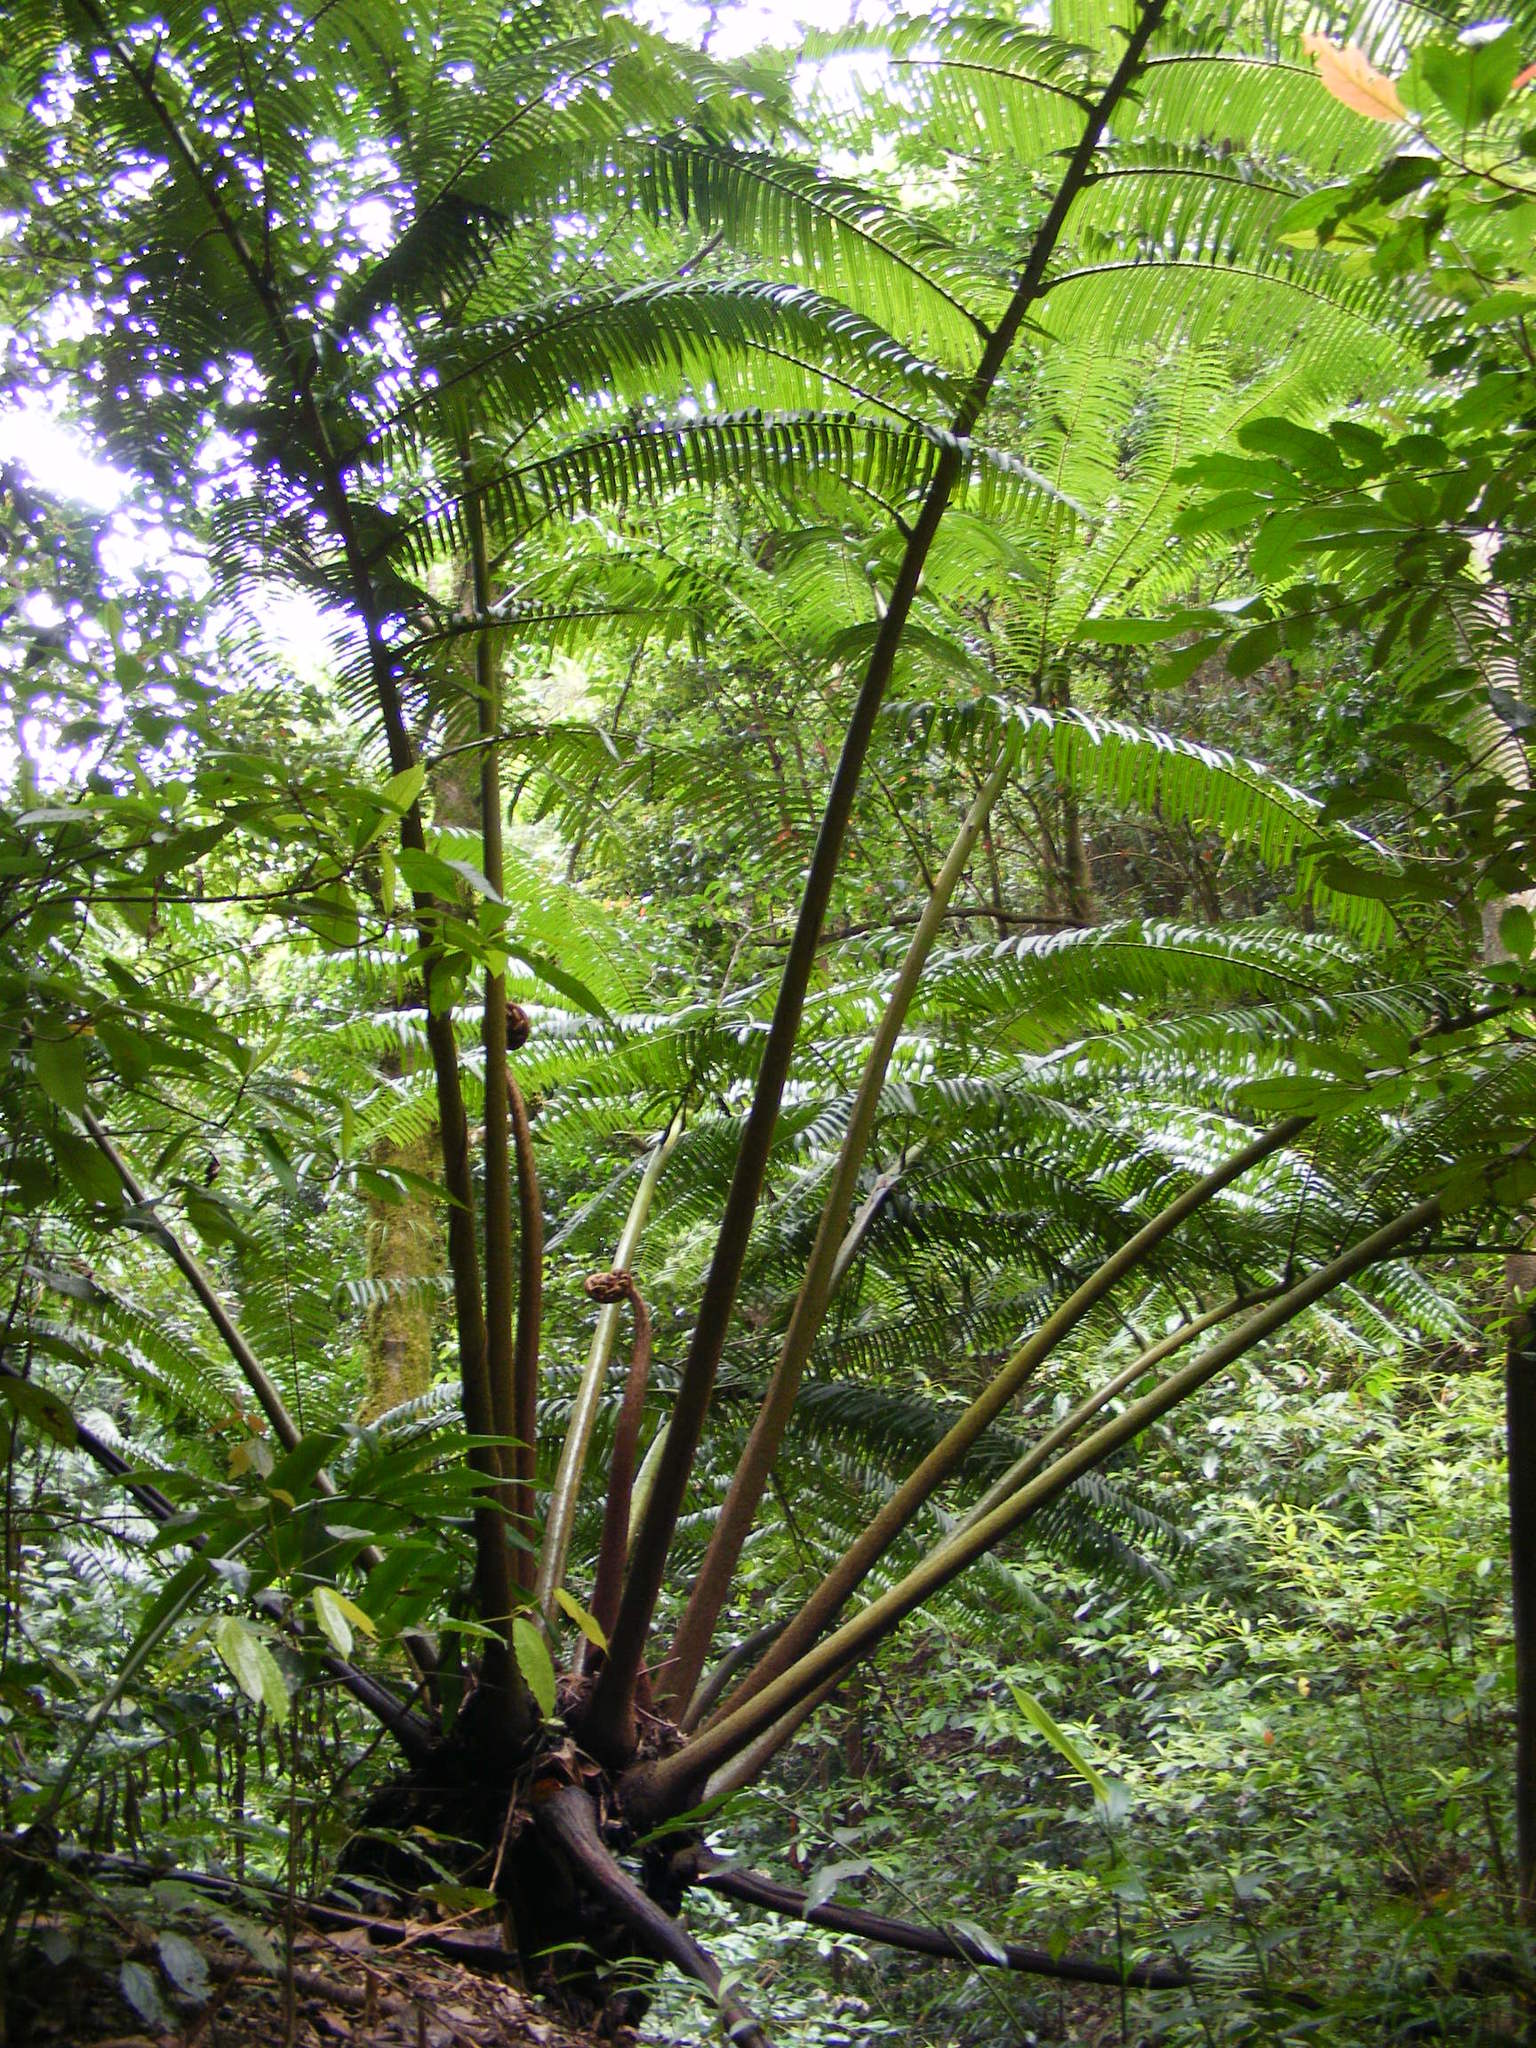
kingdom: Plantae
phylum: Tracheophyta
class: Polypodiopsida
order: Marattiales
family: Marattiaceae
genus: Angiopteris
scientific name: Angiopteris evecta
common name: Mule's-foot fern
